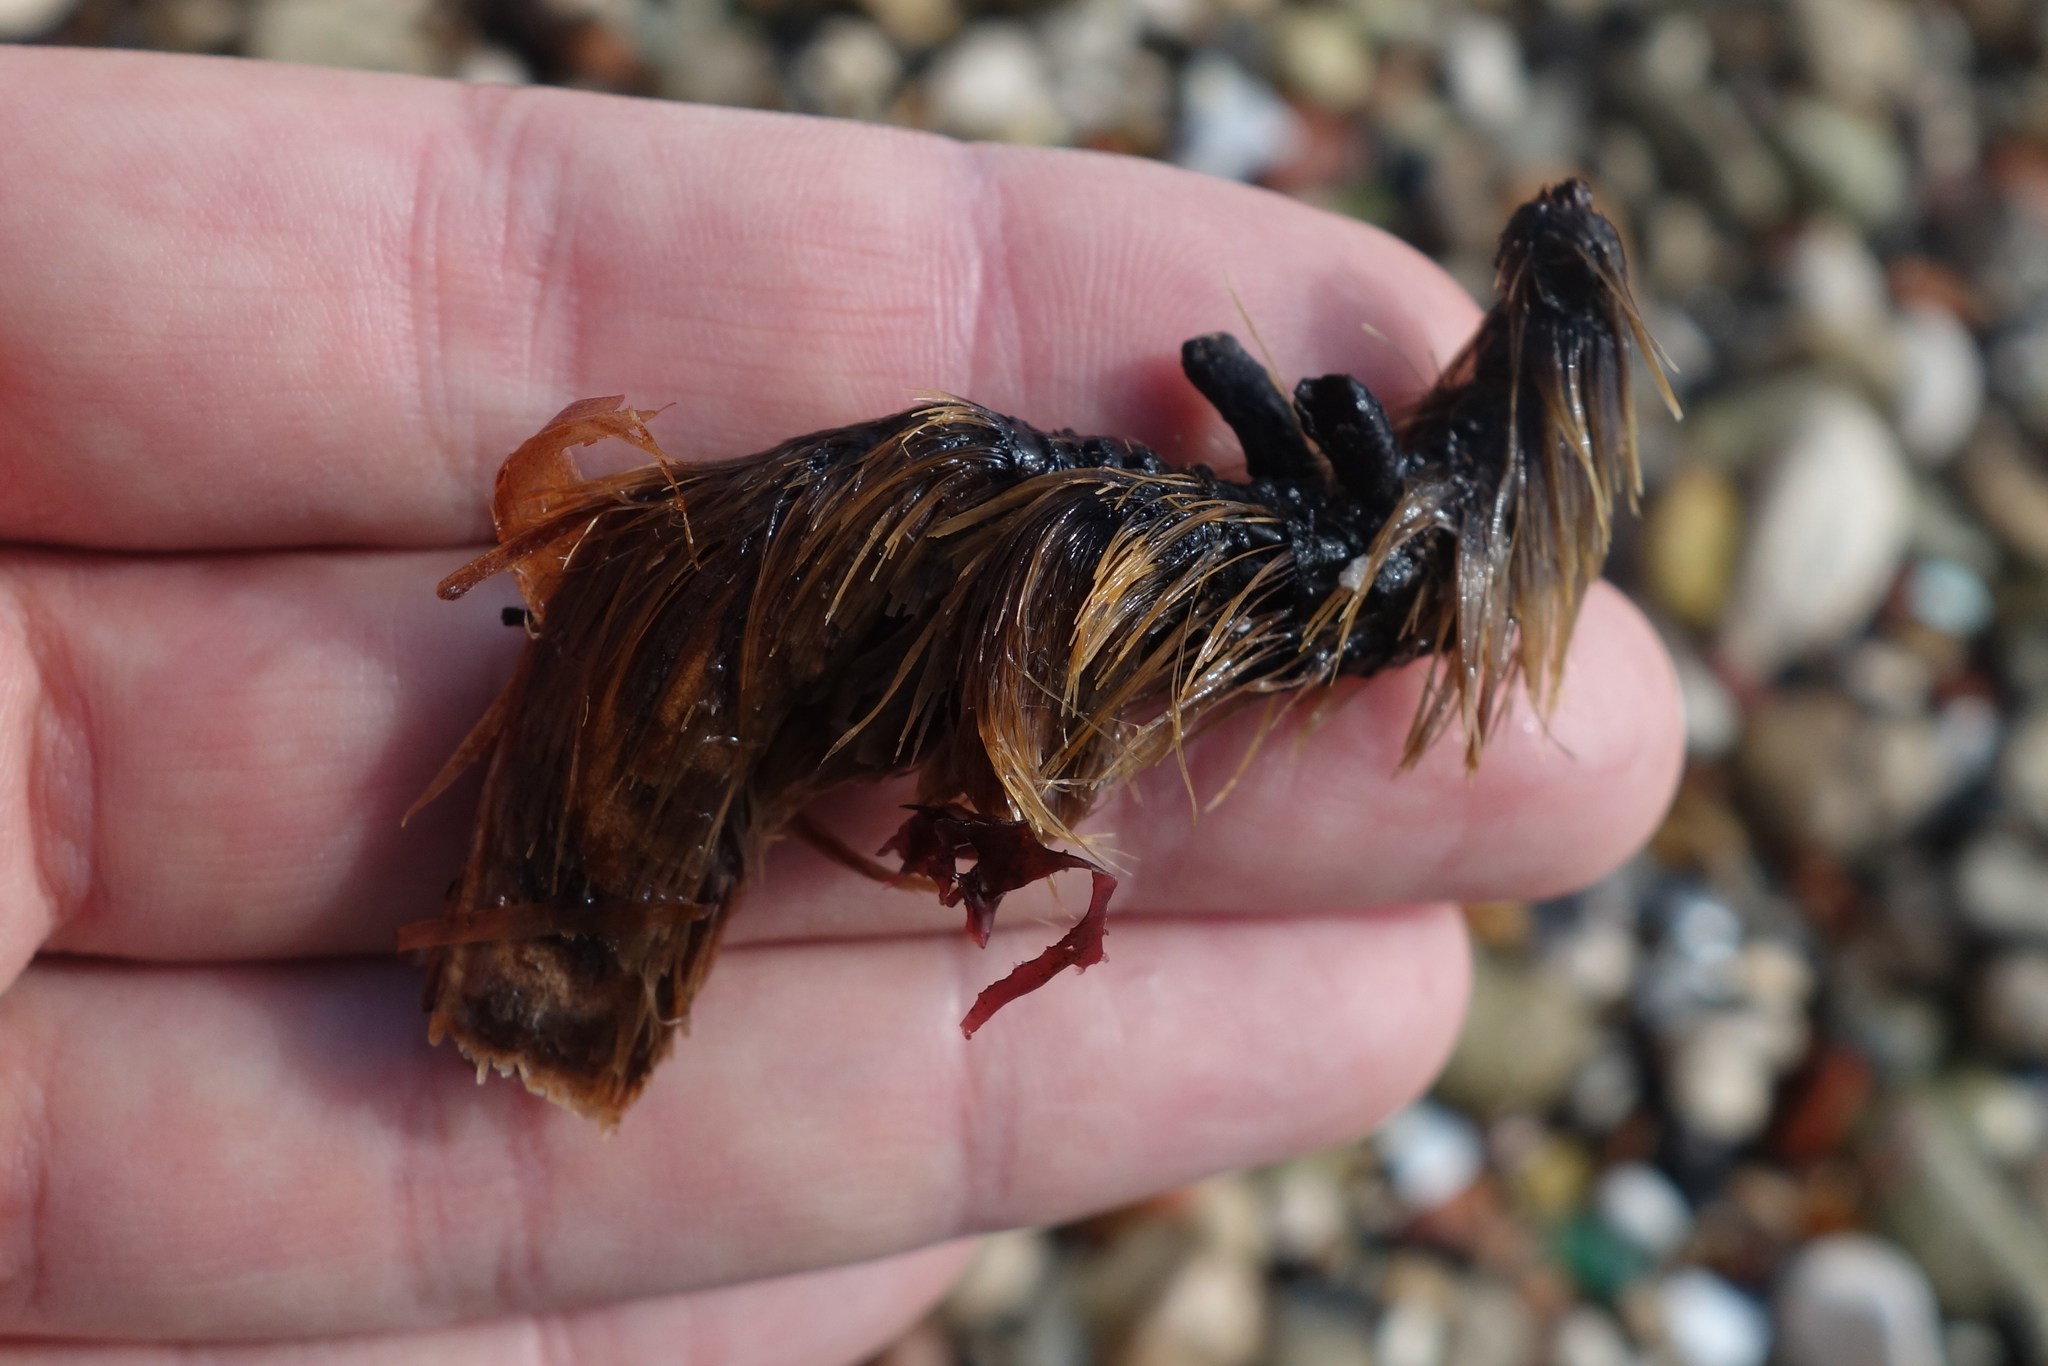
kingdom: Plantae
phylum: Tracheophyta
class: Liliopsida
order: Alismatales
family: Posidoniaceae
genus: Posidonia
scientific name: Posidonia oceanica
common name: Mediterranean tapeweed
